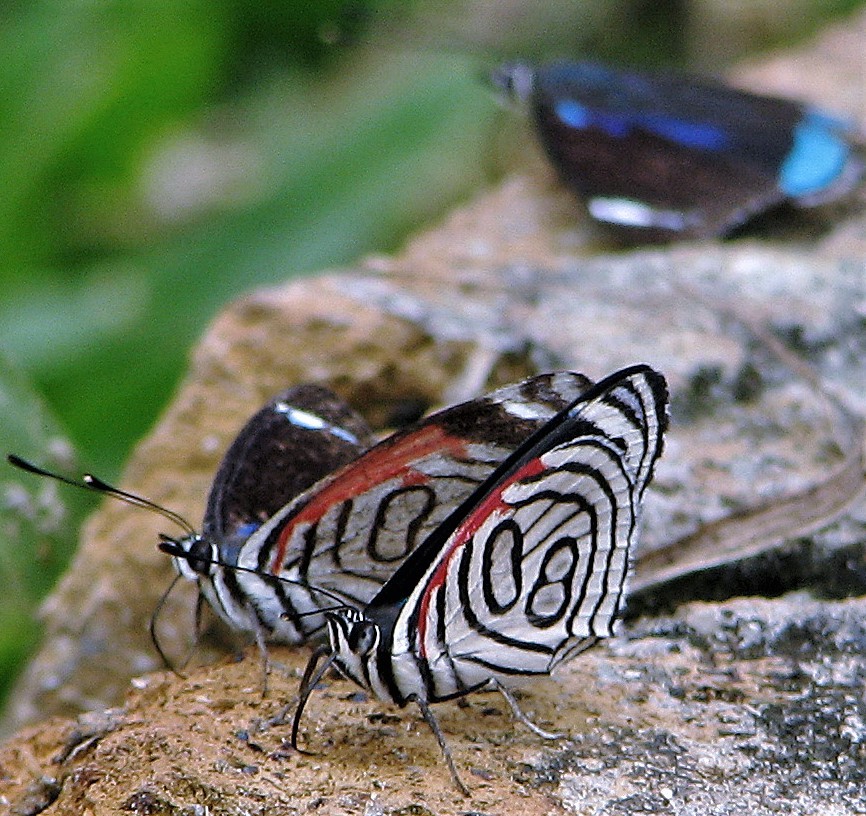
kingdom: Animalia
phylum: Arthropoda
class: Insecta
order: Lepidoptera
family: Nymphalidae
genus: Diaethria
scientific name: Diaethria candrena
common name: Number eighty
